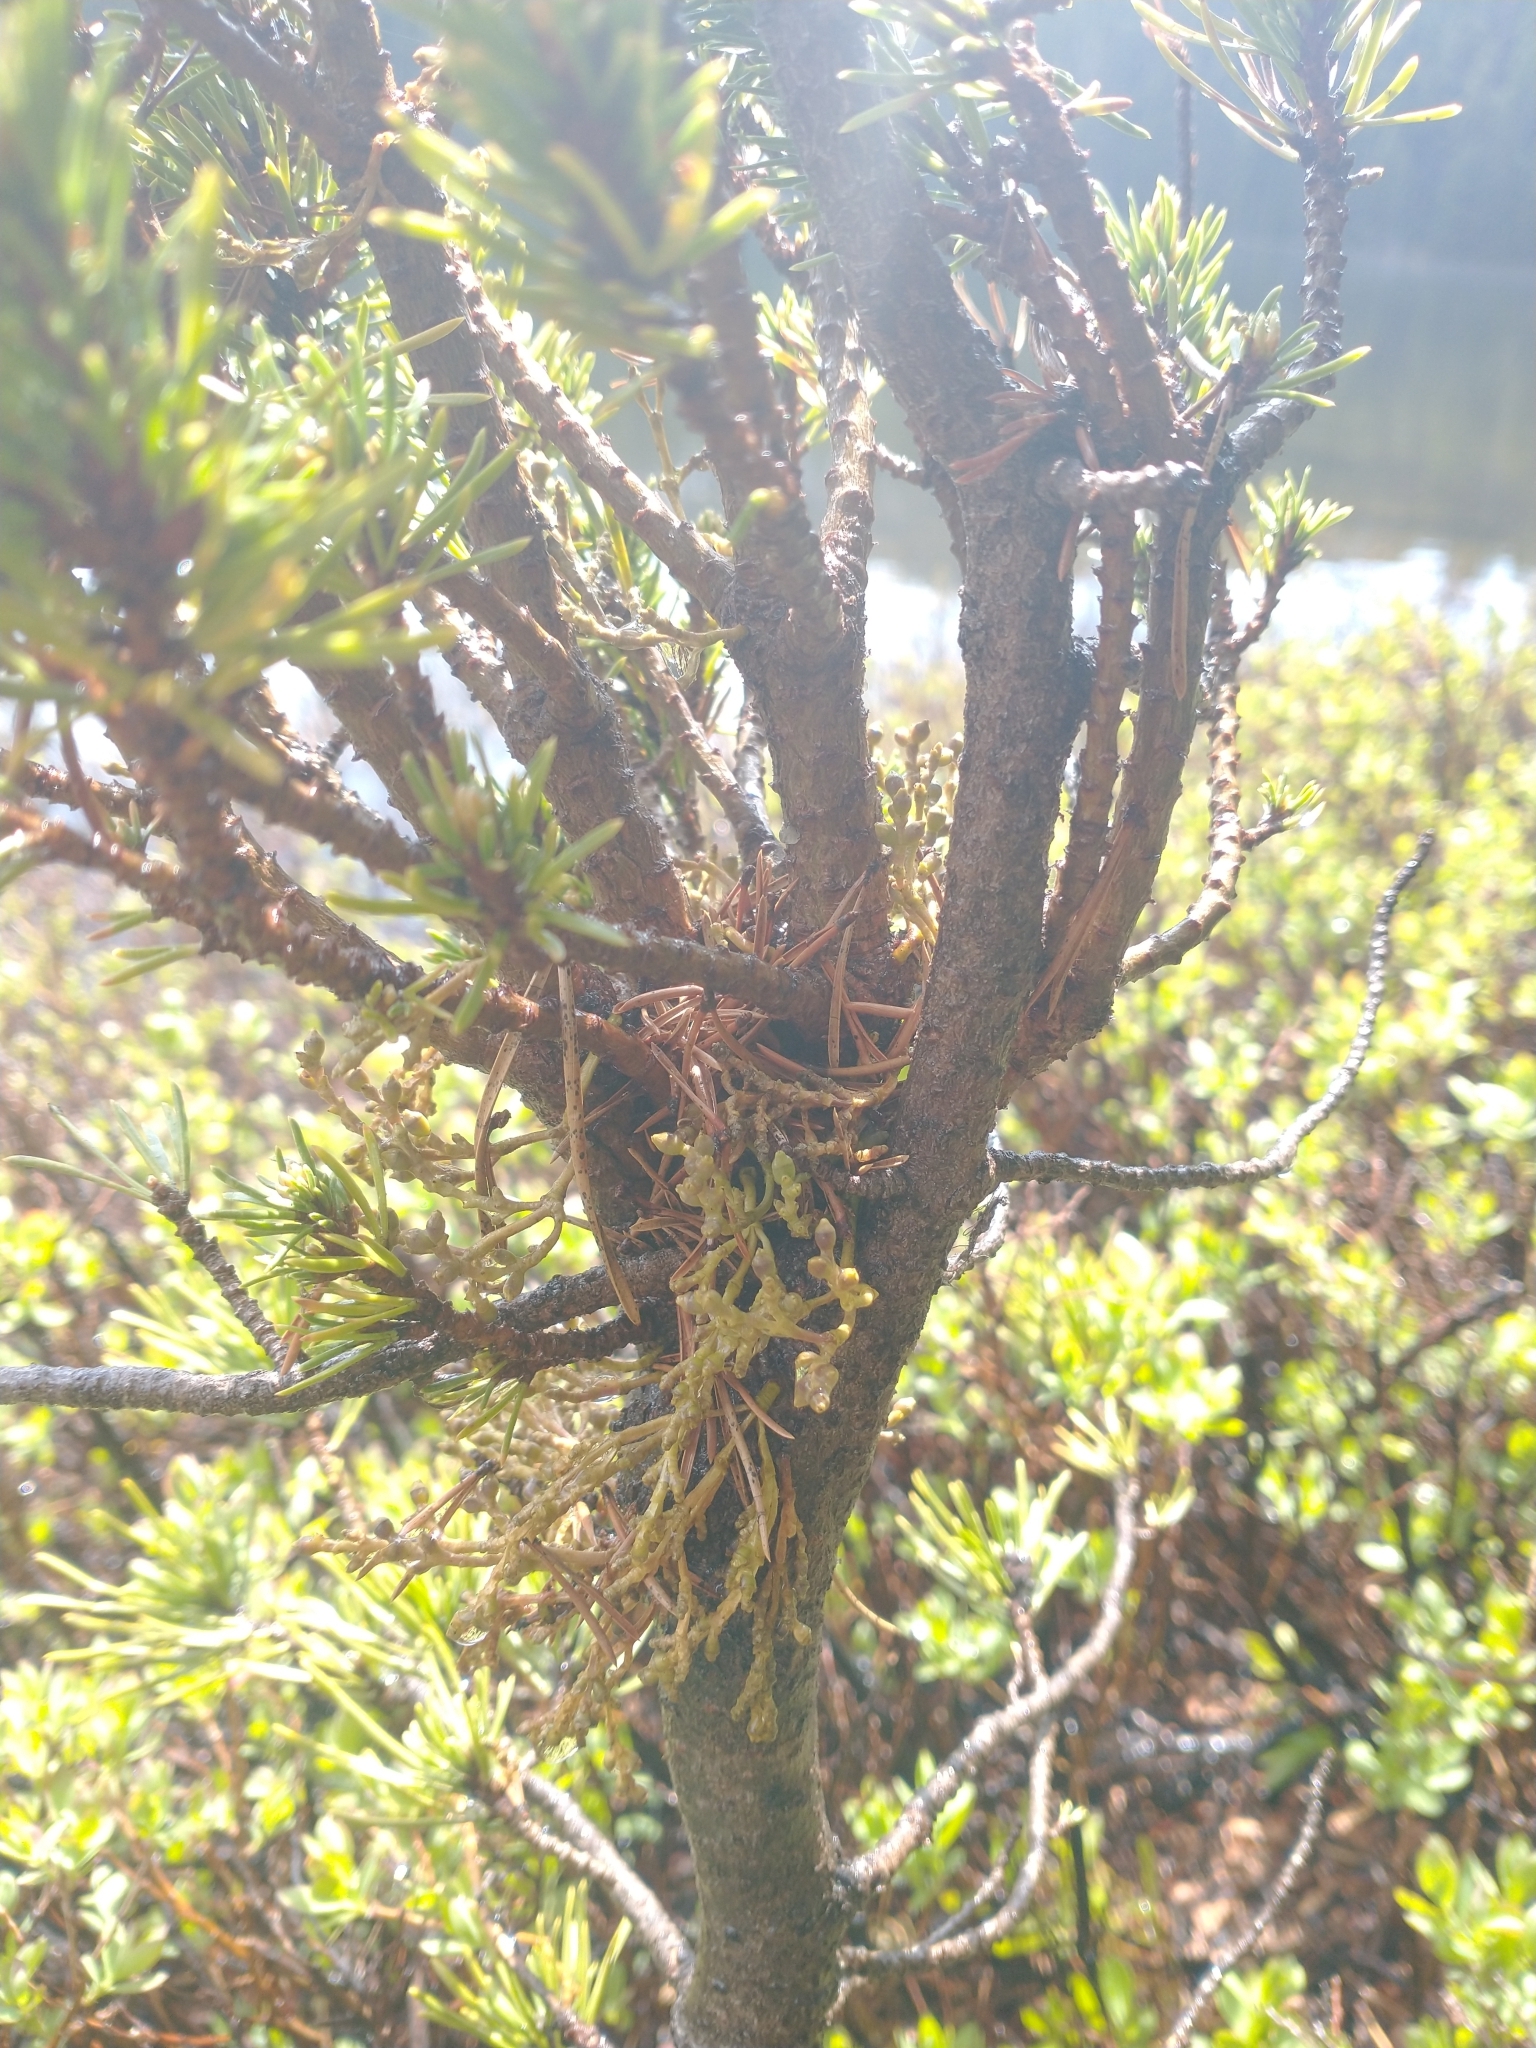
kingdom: Plantae
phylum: Tracheophyta
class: Magnoliopsida
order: Santalales
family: Viscaceae
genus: Arceuthobium
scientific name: Arceuthobium americanum
